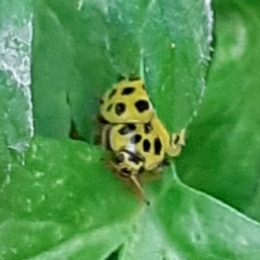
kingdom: Animalia
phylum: Arthropoda
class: Insecta
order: Coleoptera
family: Coccinellidae
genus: Psyllobora
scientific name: Psyllobora vigintiduopunctata
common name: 22-spot ladybird
